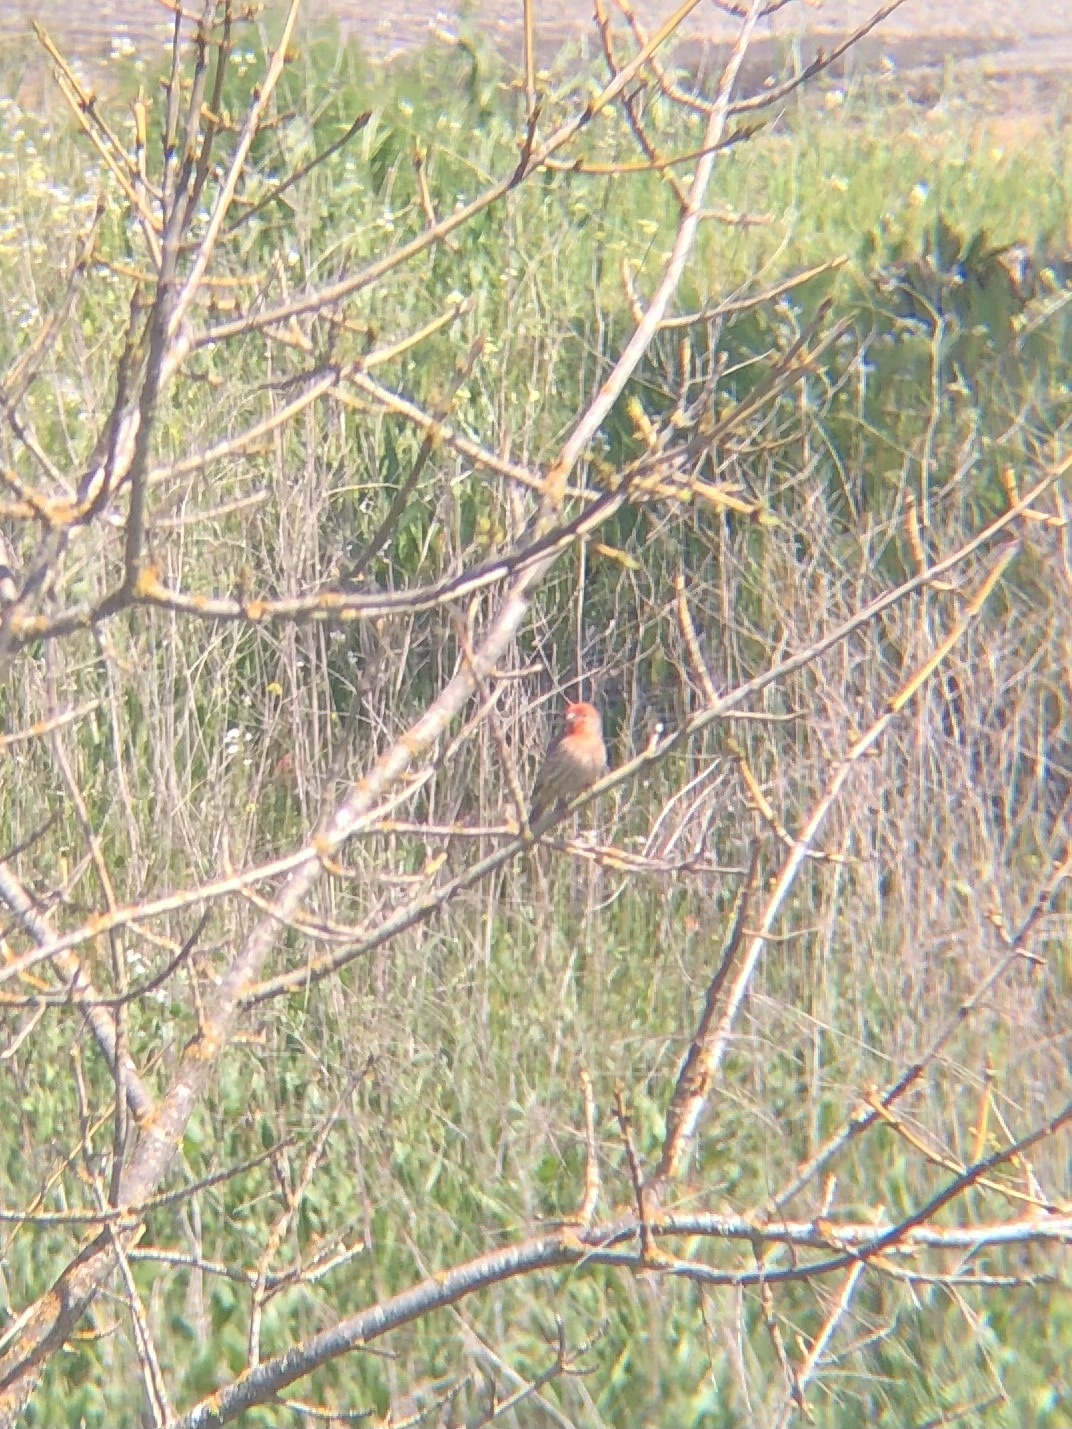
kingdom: Animalia
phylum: Chordata
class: Aves
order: Passeriformes
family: Fringillidae
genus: Haemorhous
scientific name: Haemorhous mexicanus
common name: House finch
